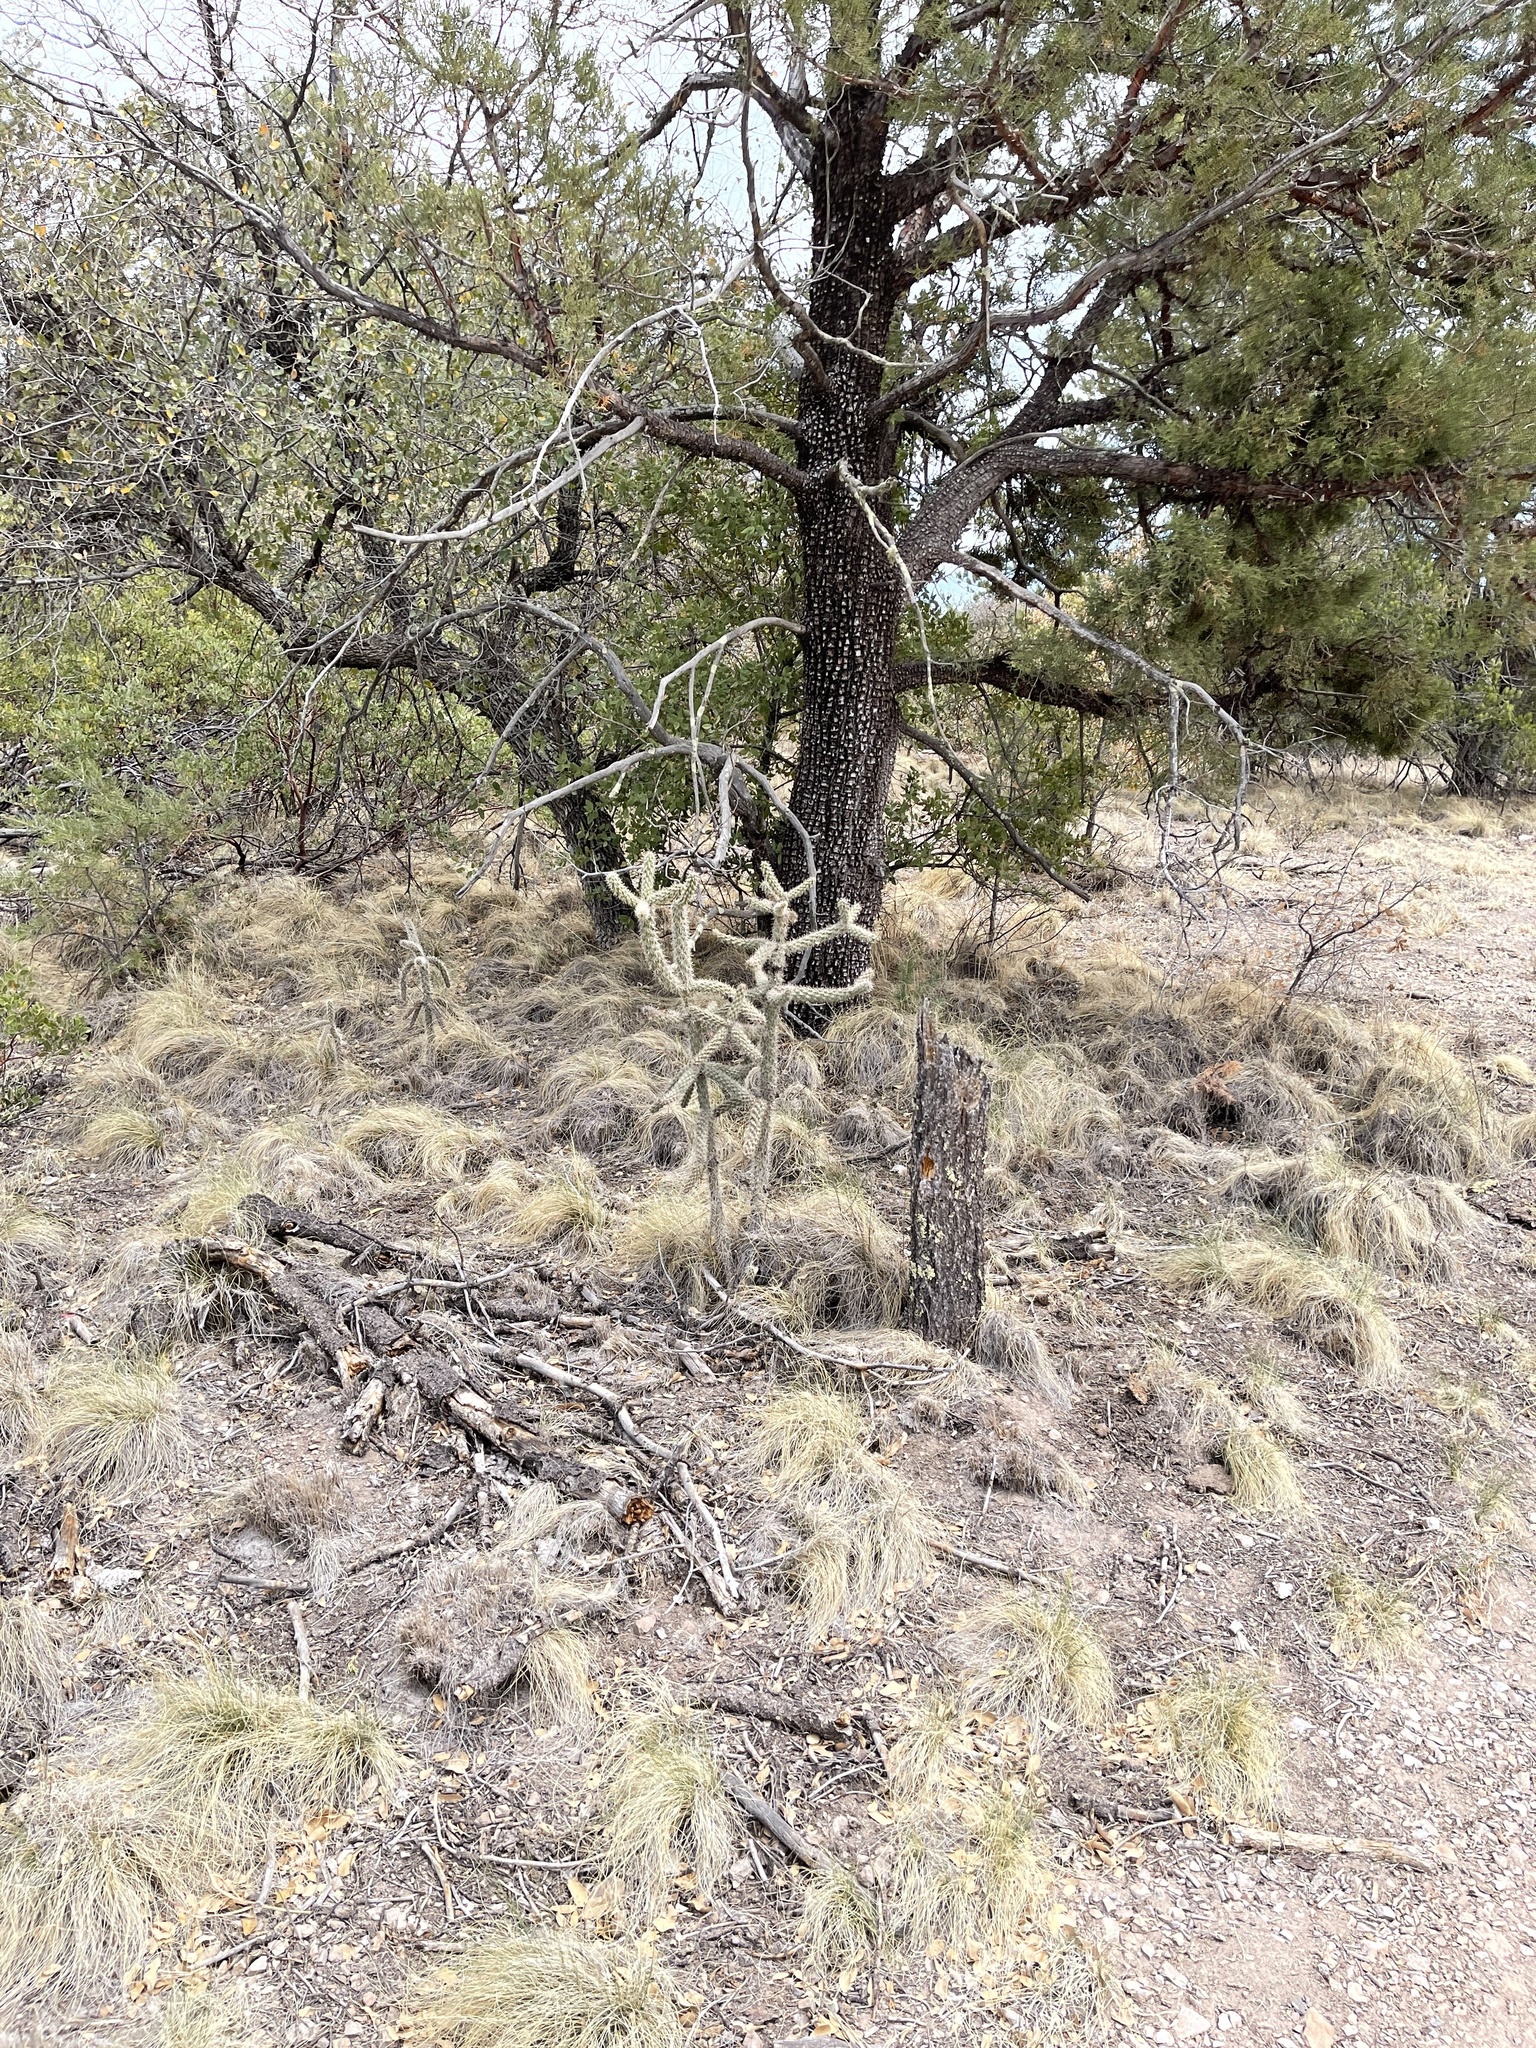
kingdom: Plantae
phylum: Tracheophyta
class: Magnoliopsida
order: Caryophyllales
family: Cactaceae
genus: Cylindropuntia
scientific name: Cylindropuntia imbricata
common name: Candelabrum cactus
